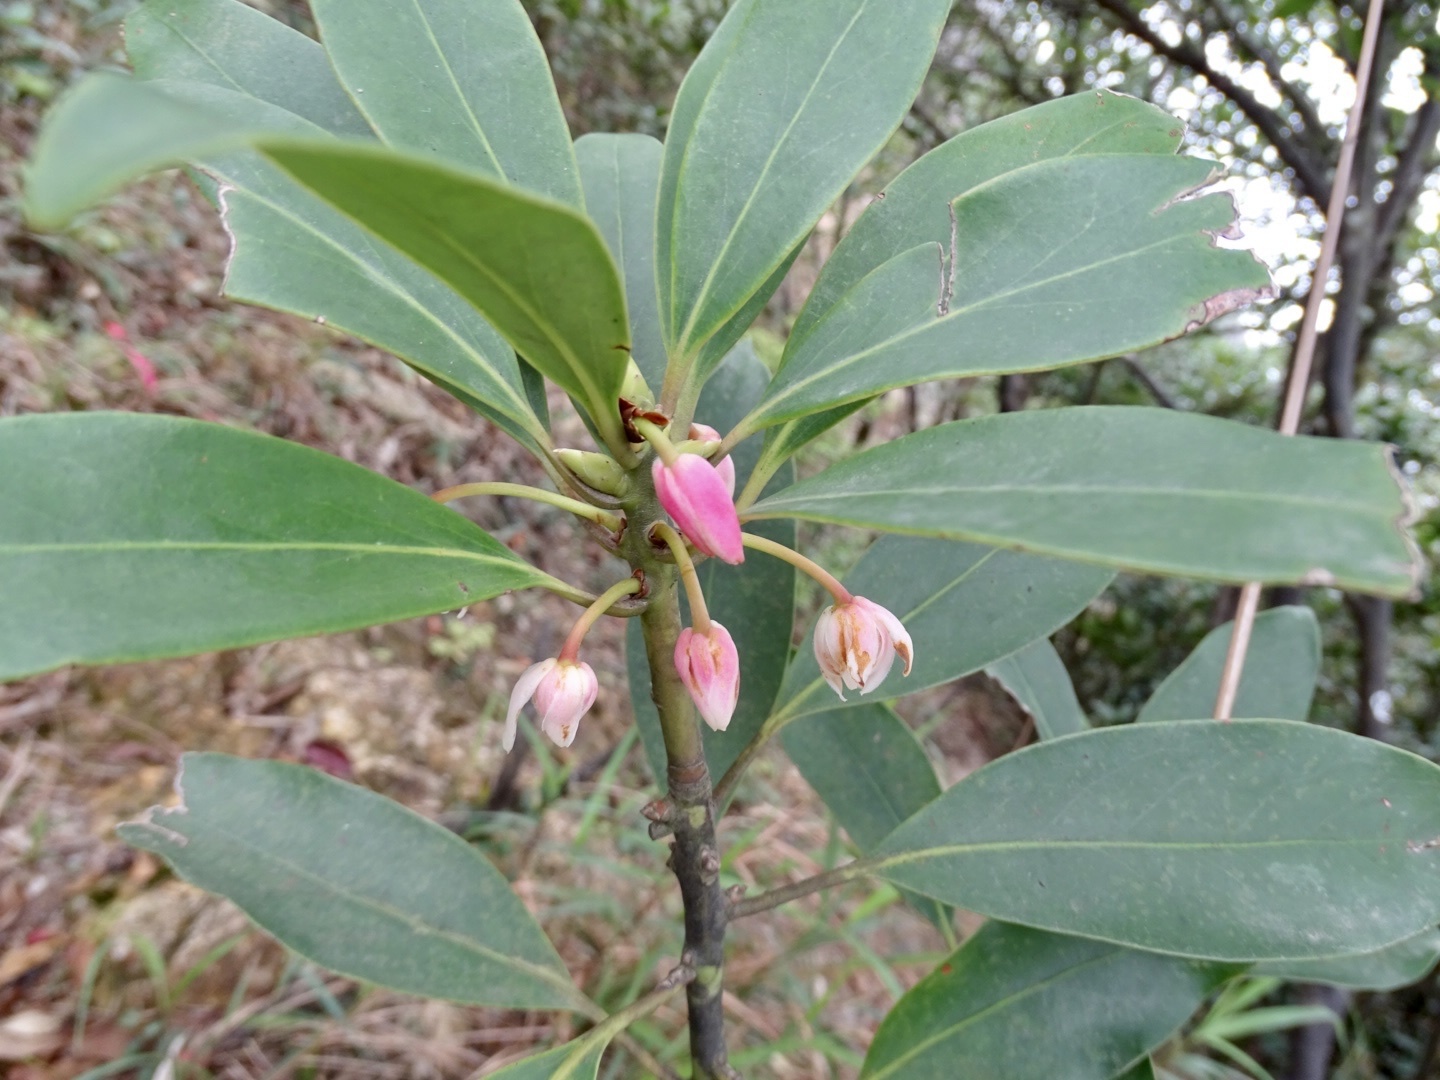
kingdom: Plantae
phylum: Tracheophyta
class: Magnoliopsida
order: Austrobaileyales
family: Schisandraceae
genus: Illicium
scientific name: Illicium angustisepalum
